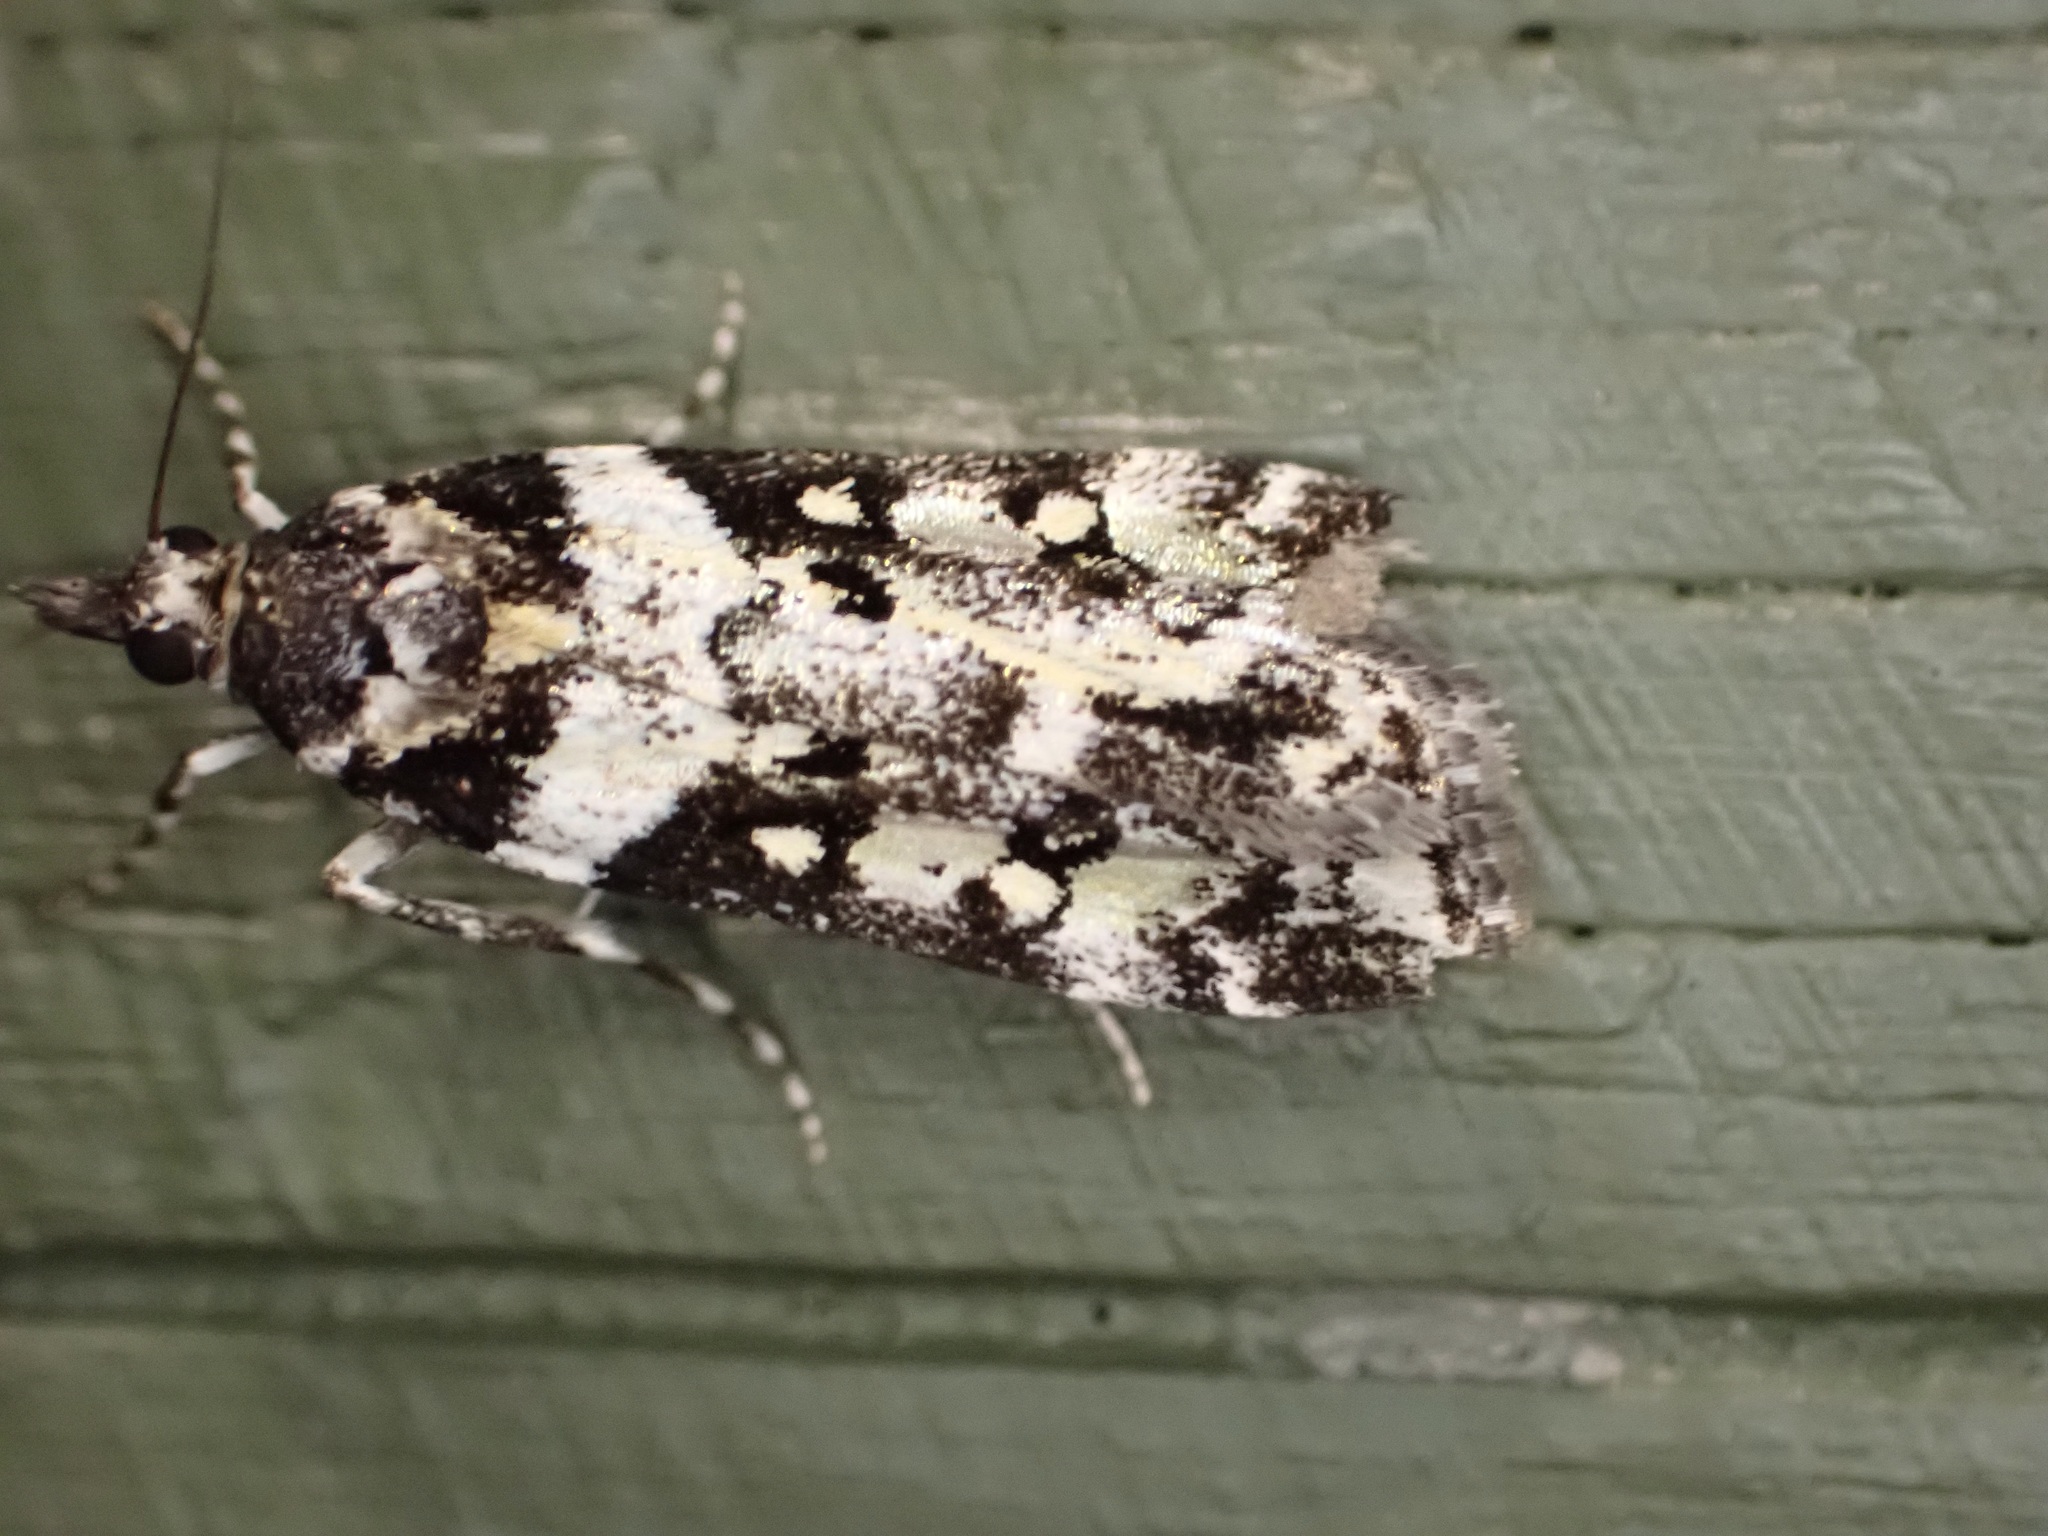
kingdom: Animalia
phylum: Arthropoda
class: Insecta
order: Lepidoptera
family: Crambidae
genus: Eudonia
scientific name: Eudonia diphtheralis
